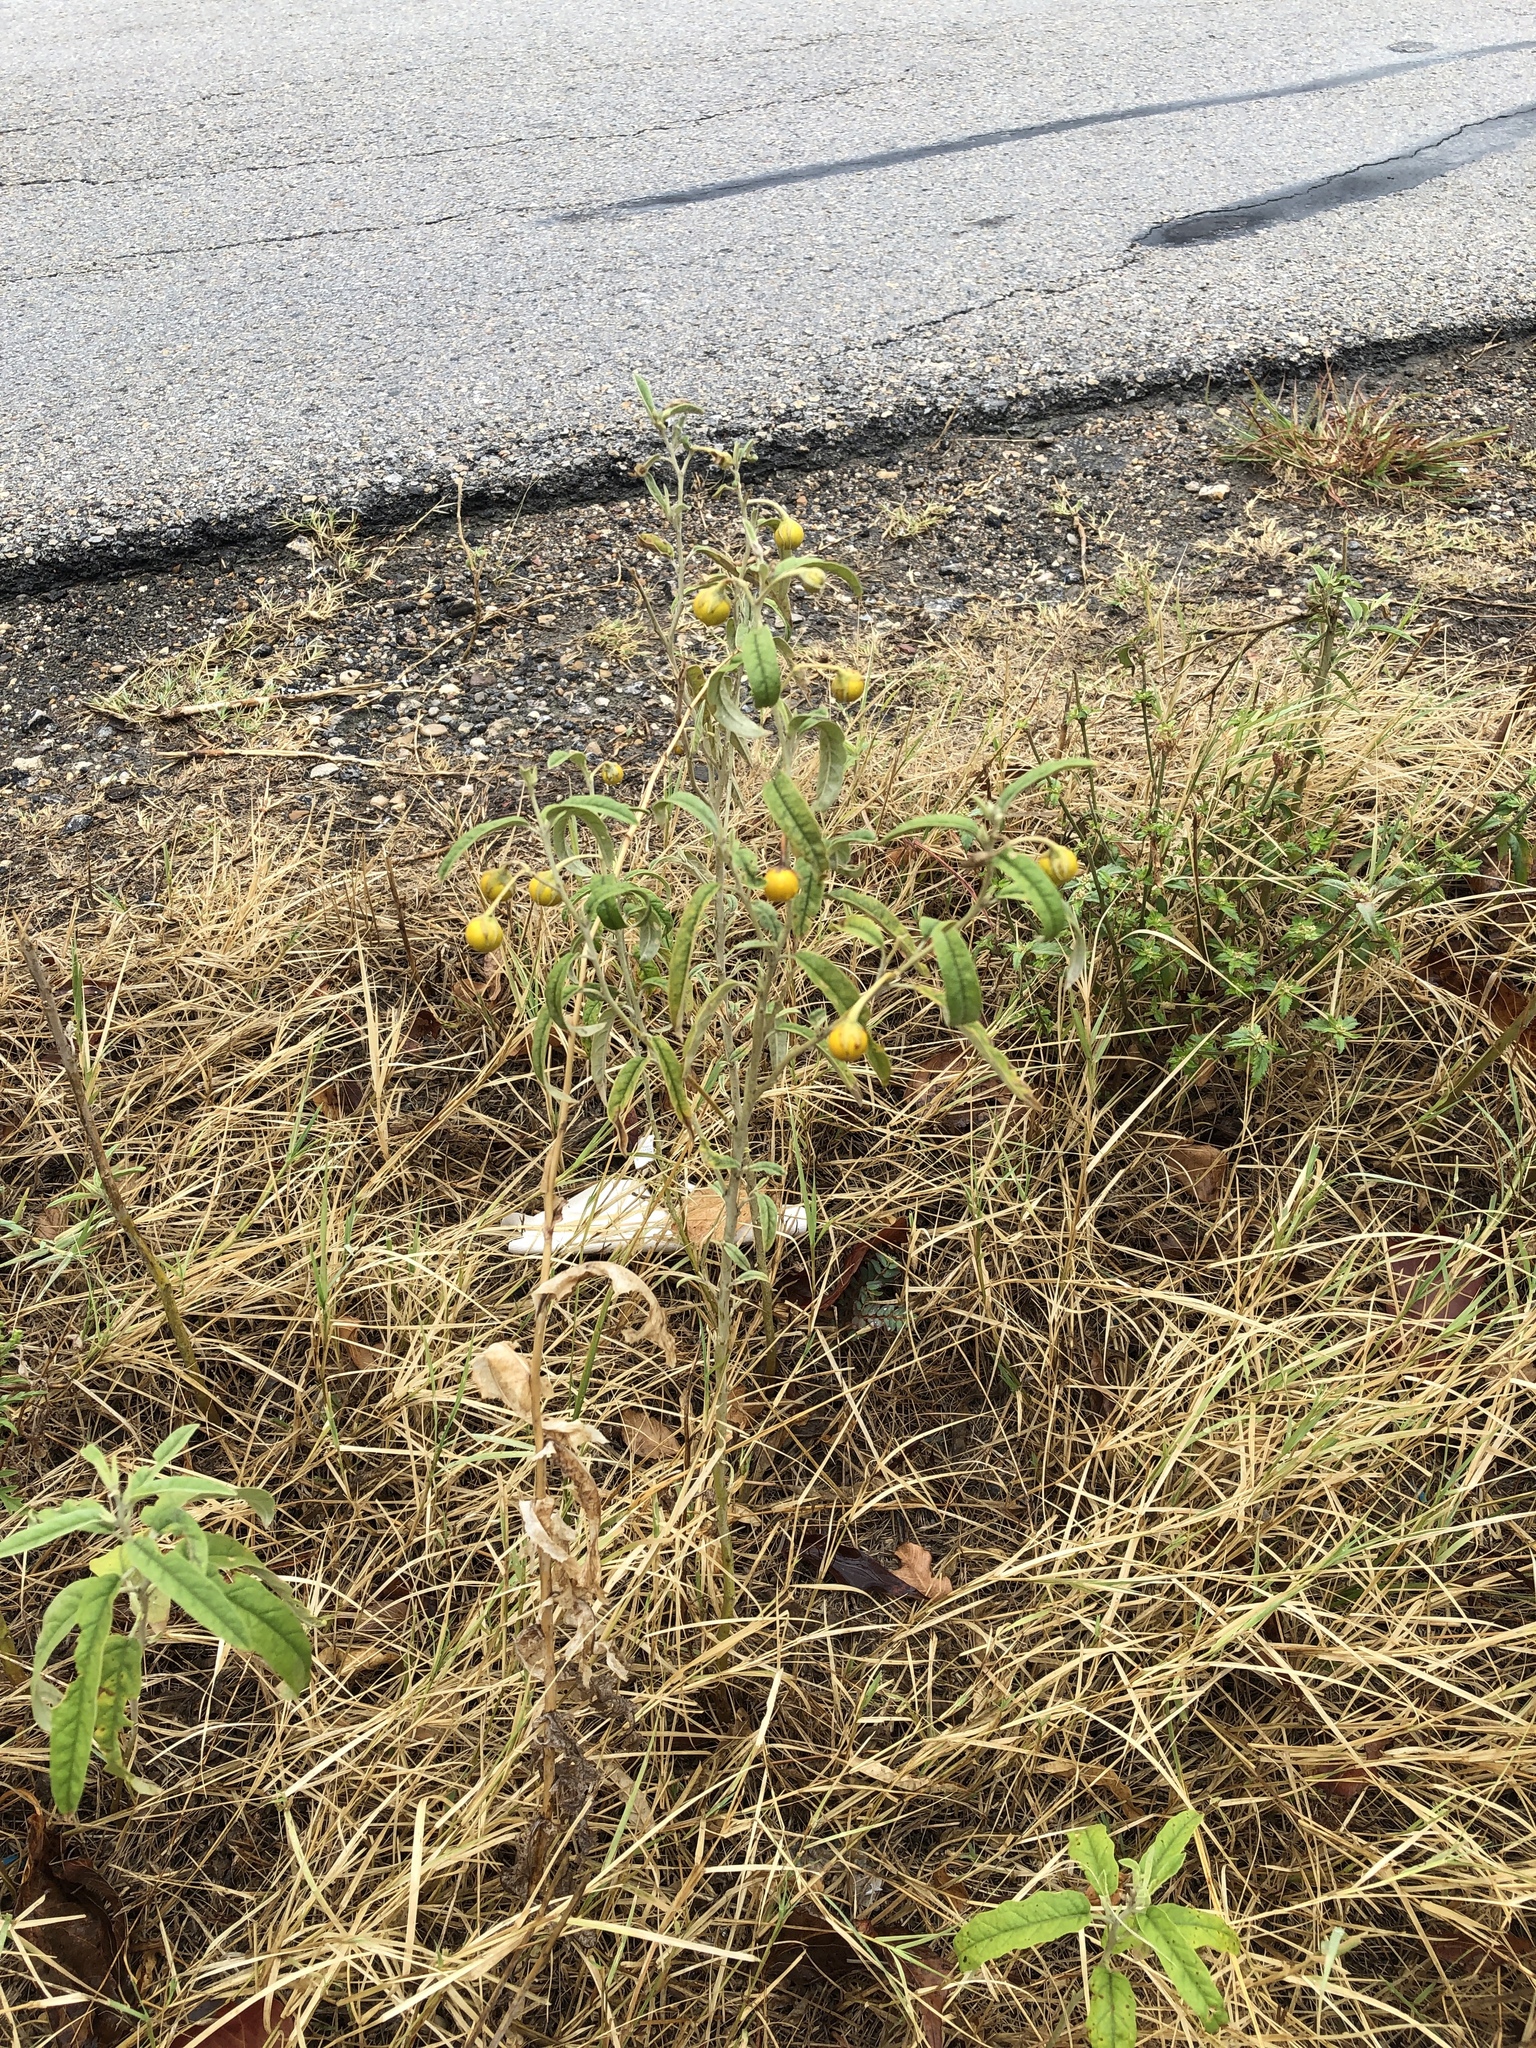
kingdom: Plantae
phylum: Tracheophyta
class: Magnoliopsida
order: Solanales
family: Solanaceae
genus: Solanum
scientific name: Solanum elaeagnifolium
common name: Silverleaf nightshade
